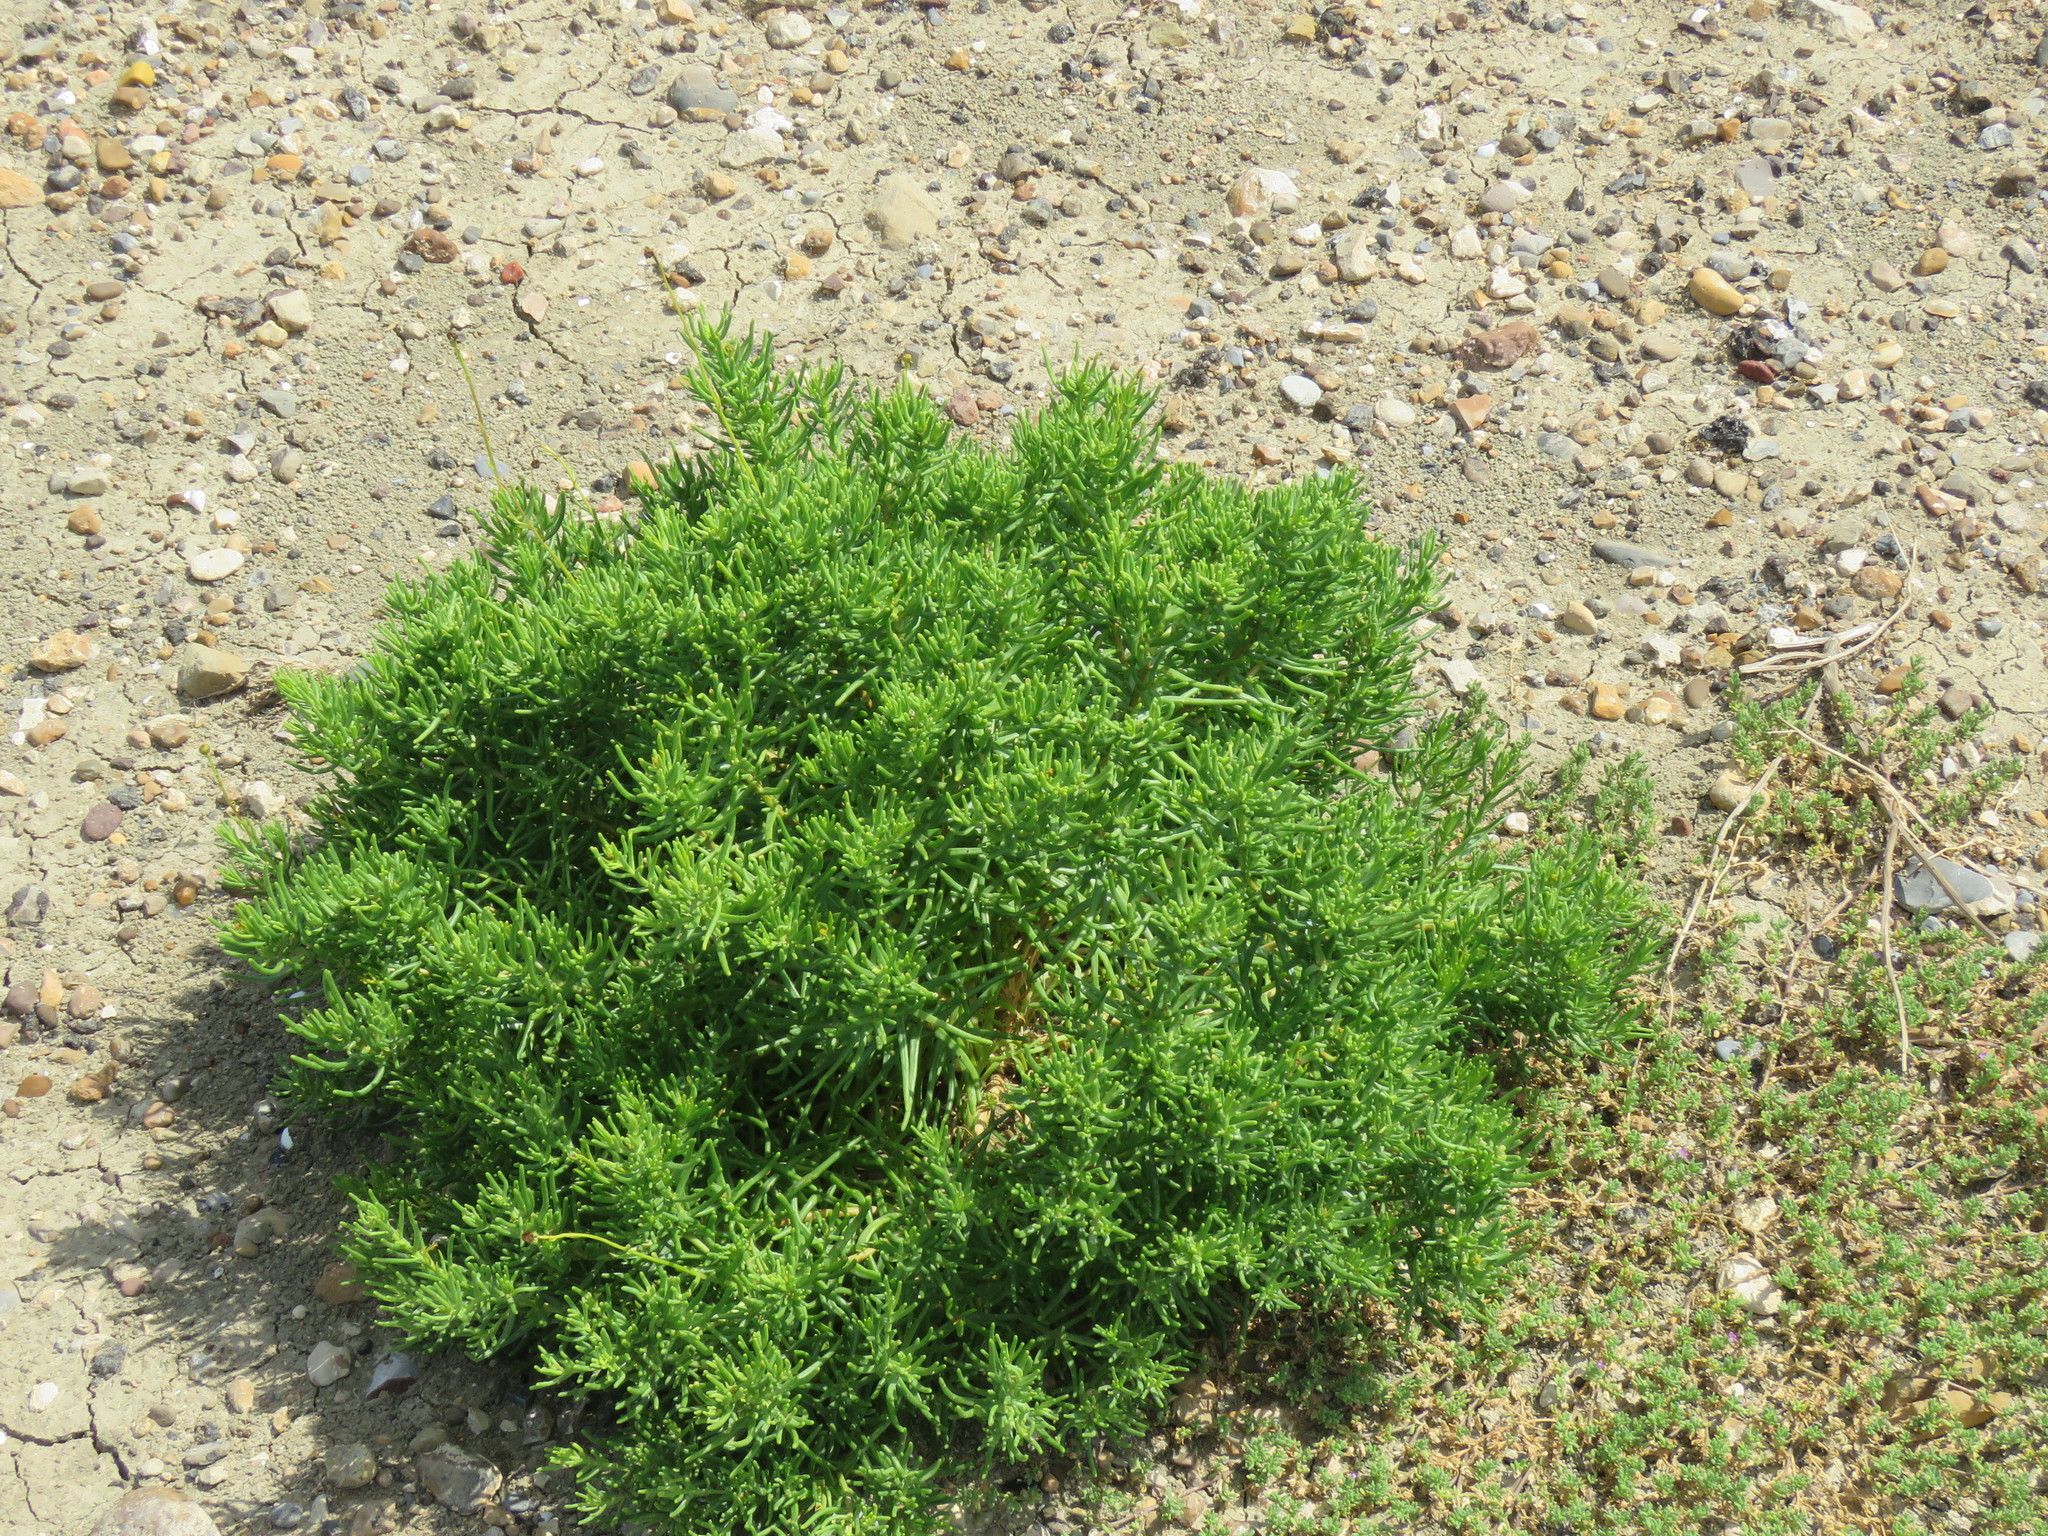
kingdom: Plantae
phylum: Tracheophyta
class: Magnoliopsida
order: Asterales
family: Asteraceae
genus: Varilla
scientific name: Varilla texana
